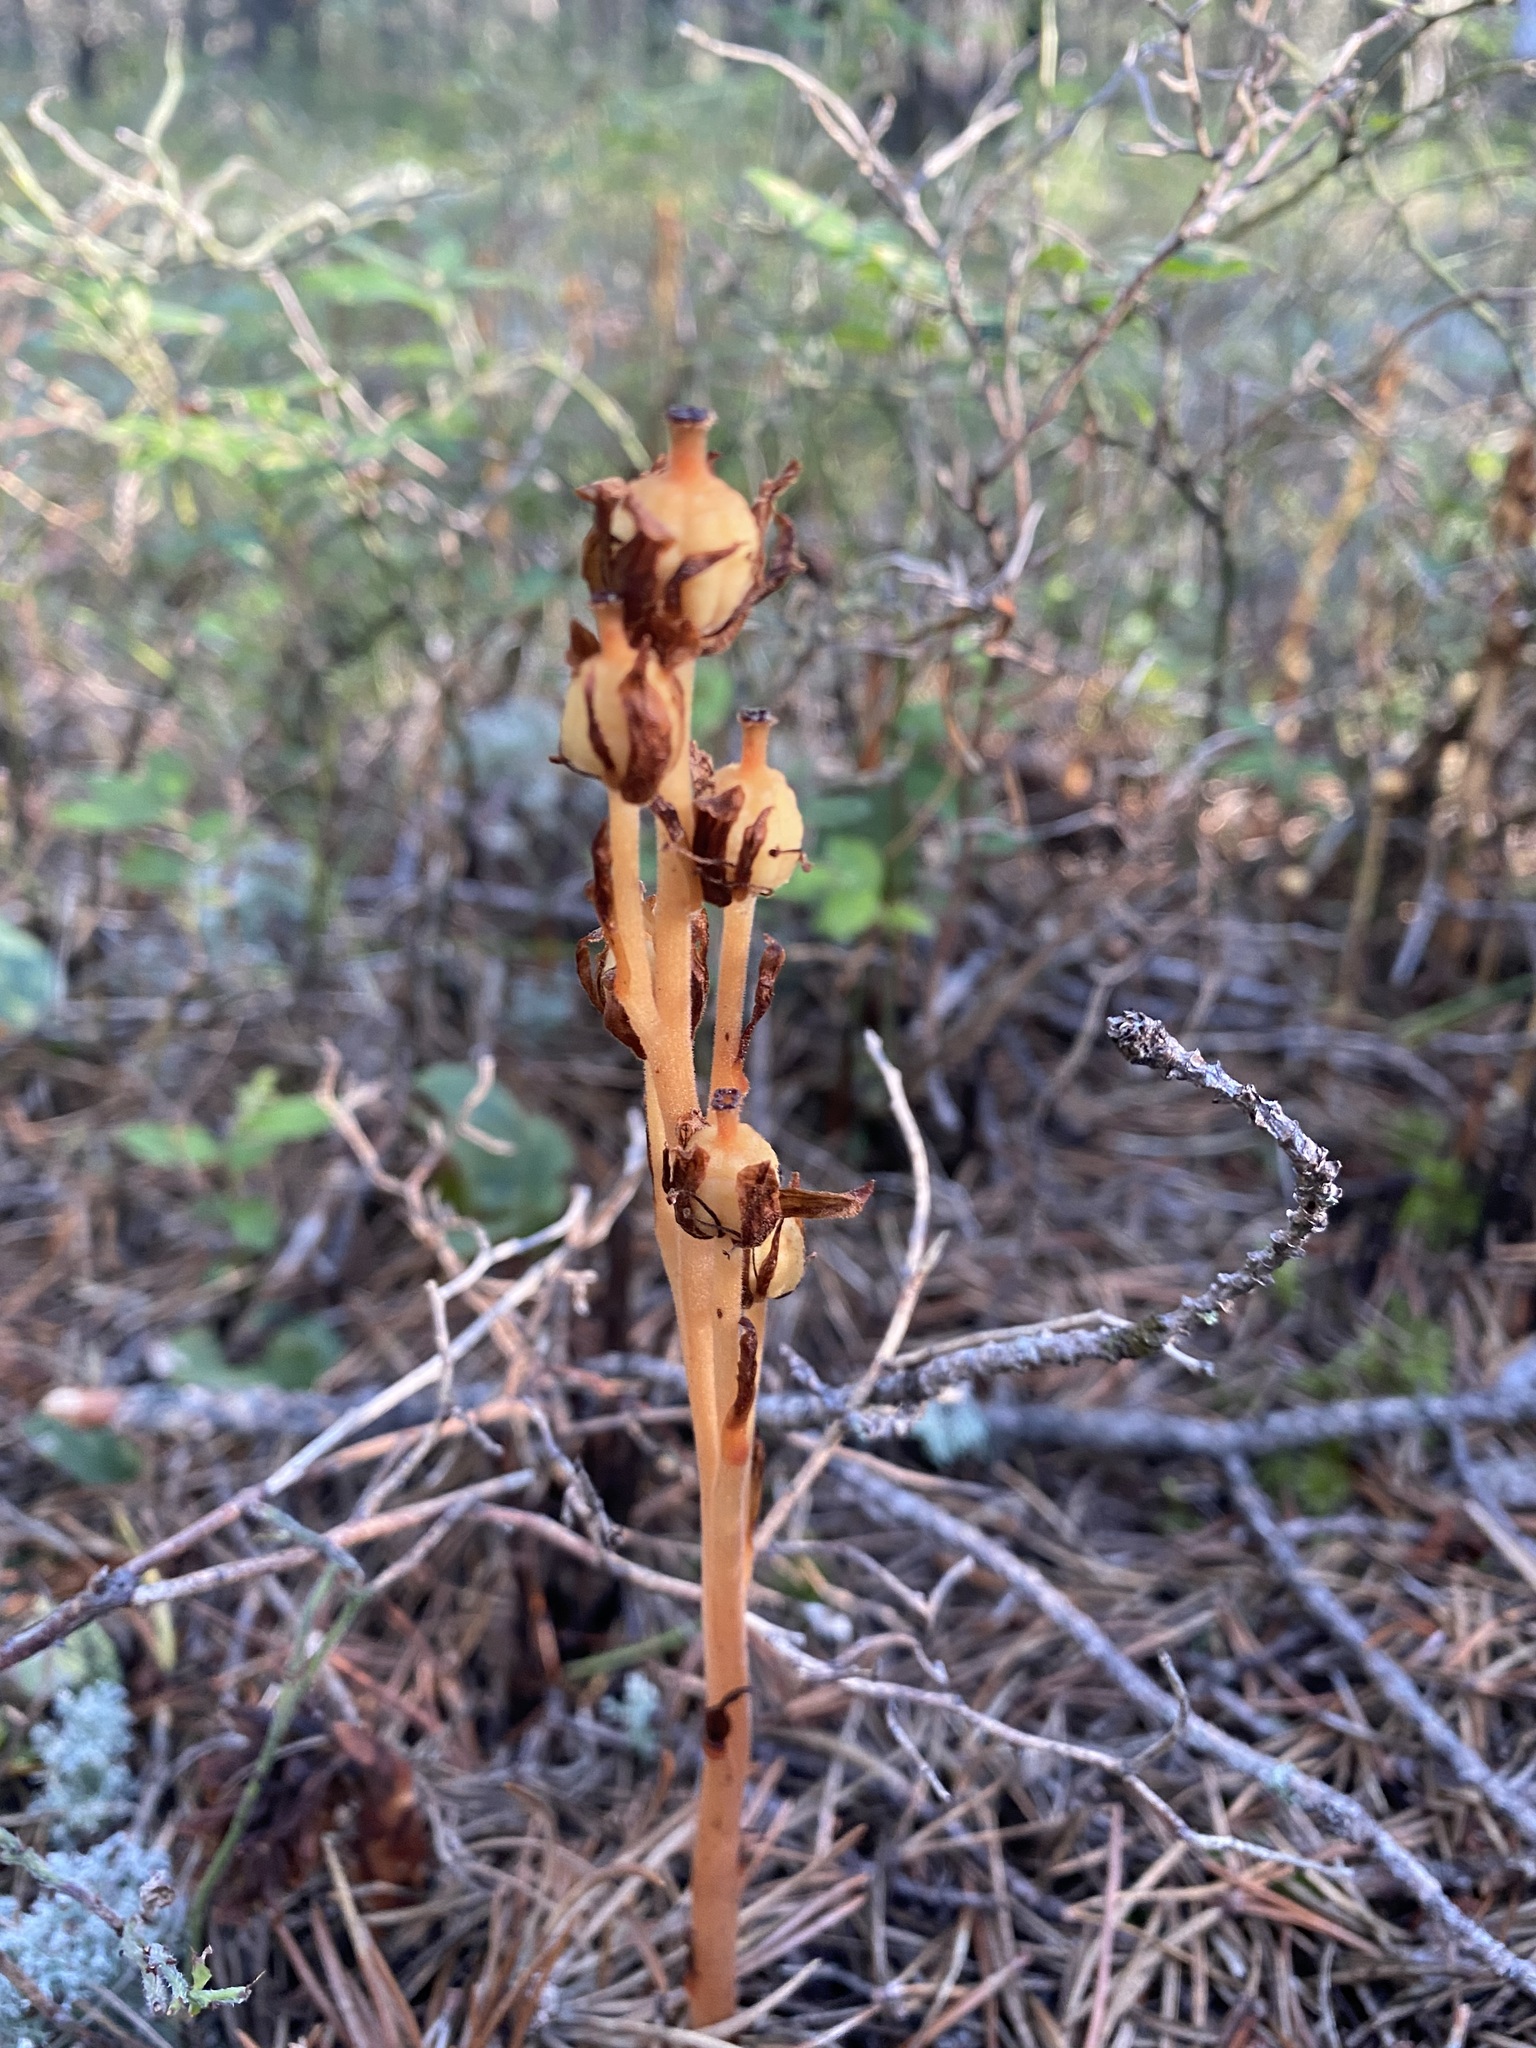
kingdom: Plantae
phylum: Tracheophyta
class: Magnoliopsida
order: Ericales
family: Ericaceae
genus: Hypopitys
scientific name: Hypopitys monotropa
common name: Yellow bird's-nest
